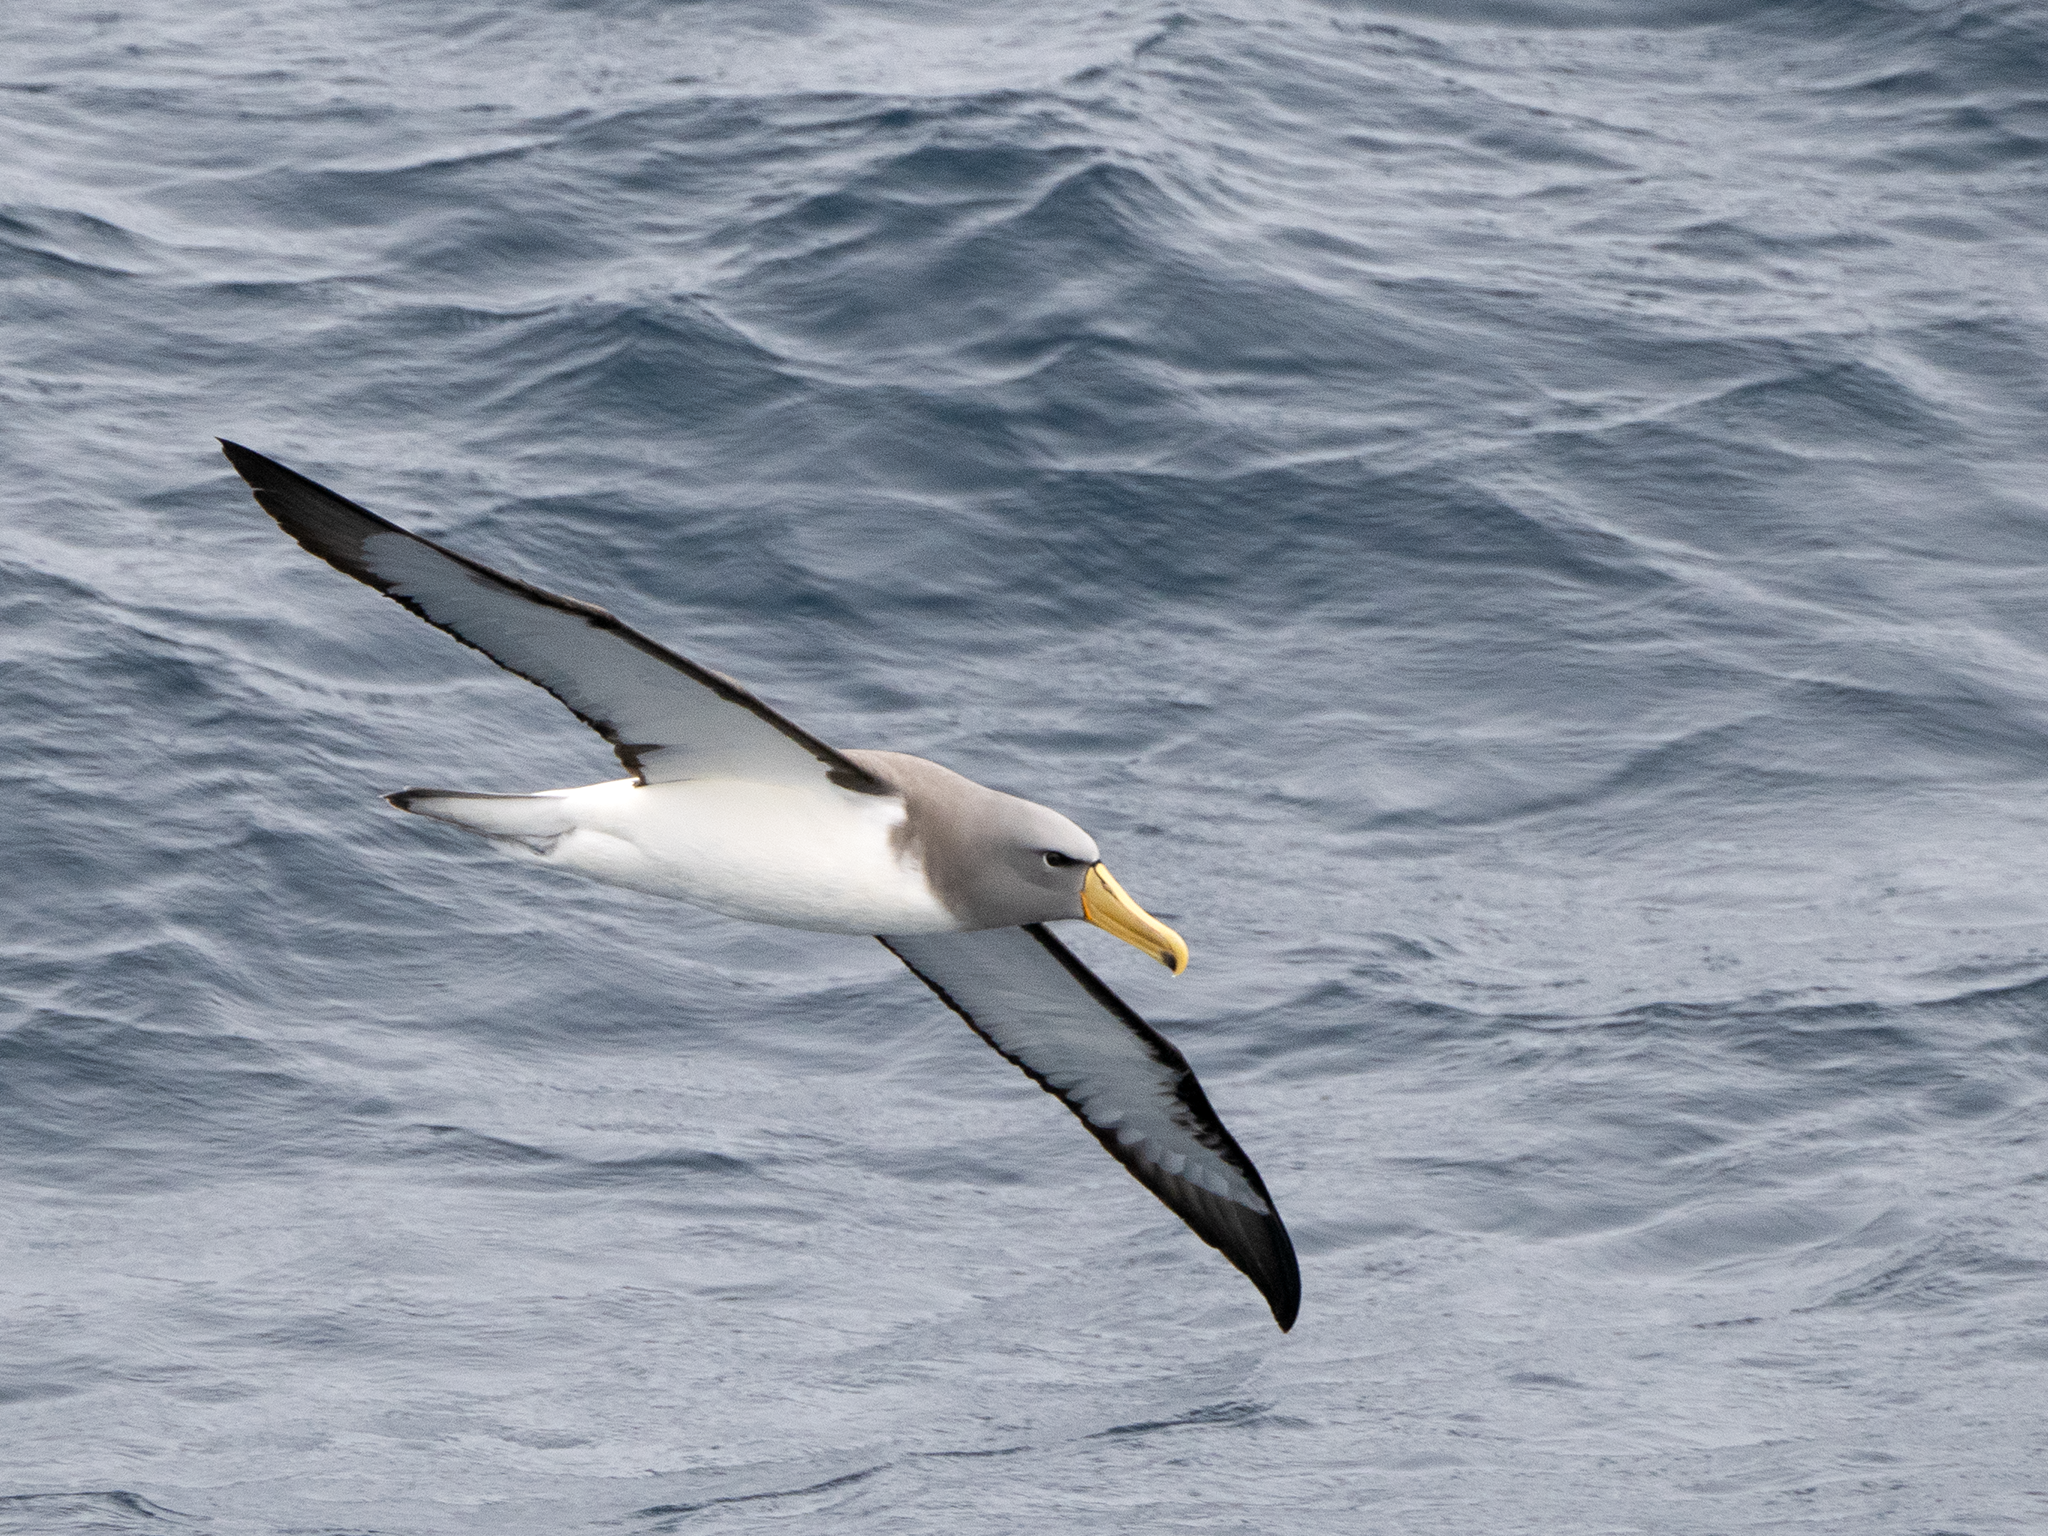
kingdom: Animalia
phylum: Chordata
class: Aves
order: Procellariiformes
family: Diomedeidae
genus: Thalassarche
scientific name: Thalassarche eremita
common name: Chatham albatross
